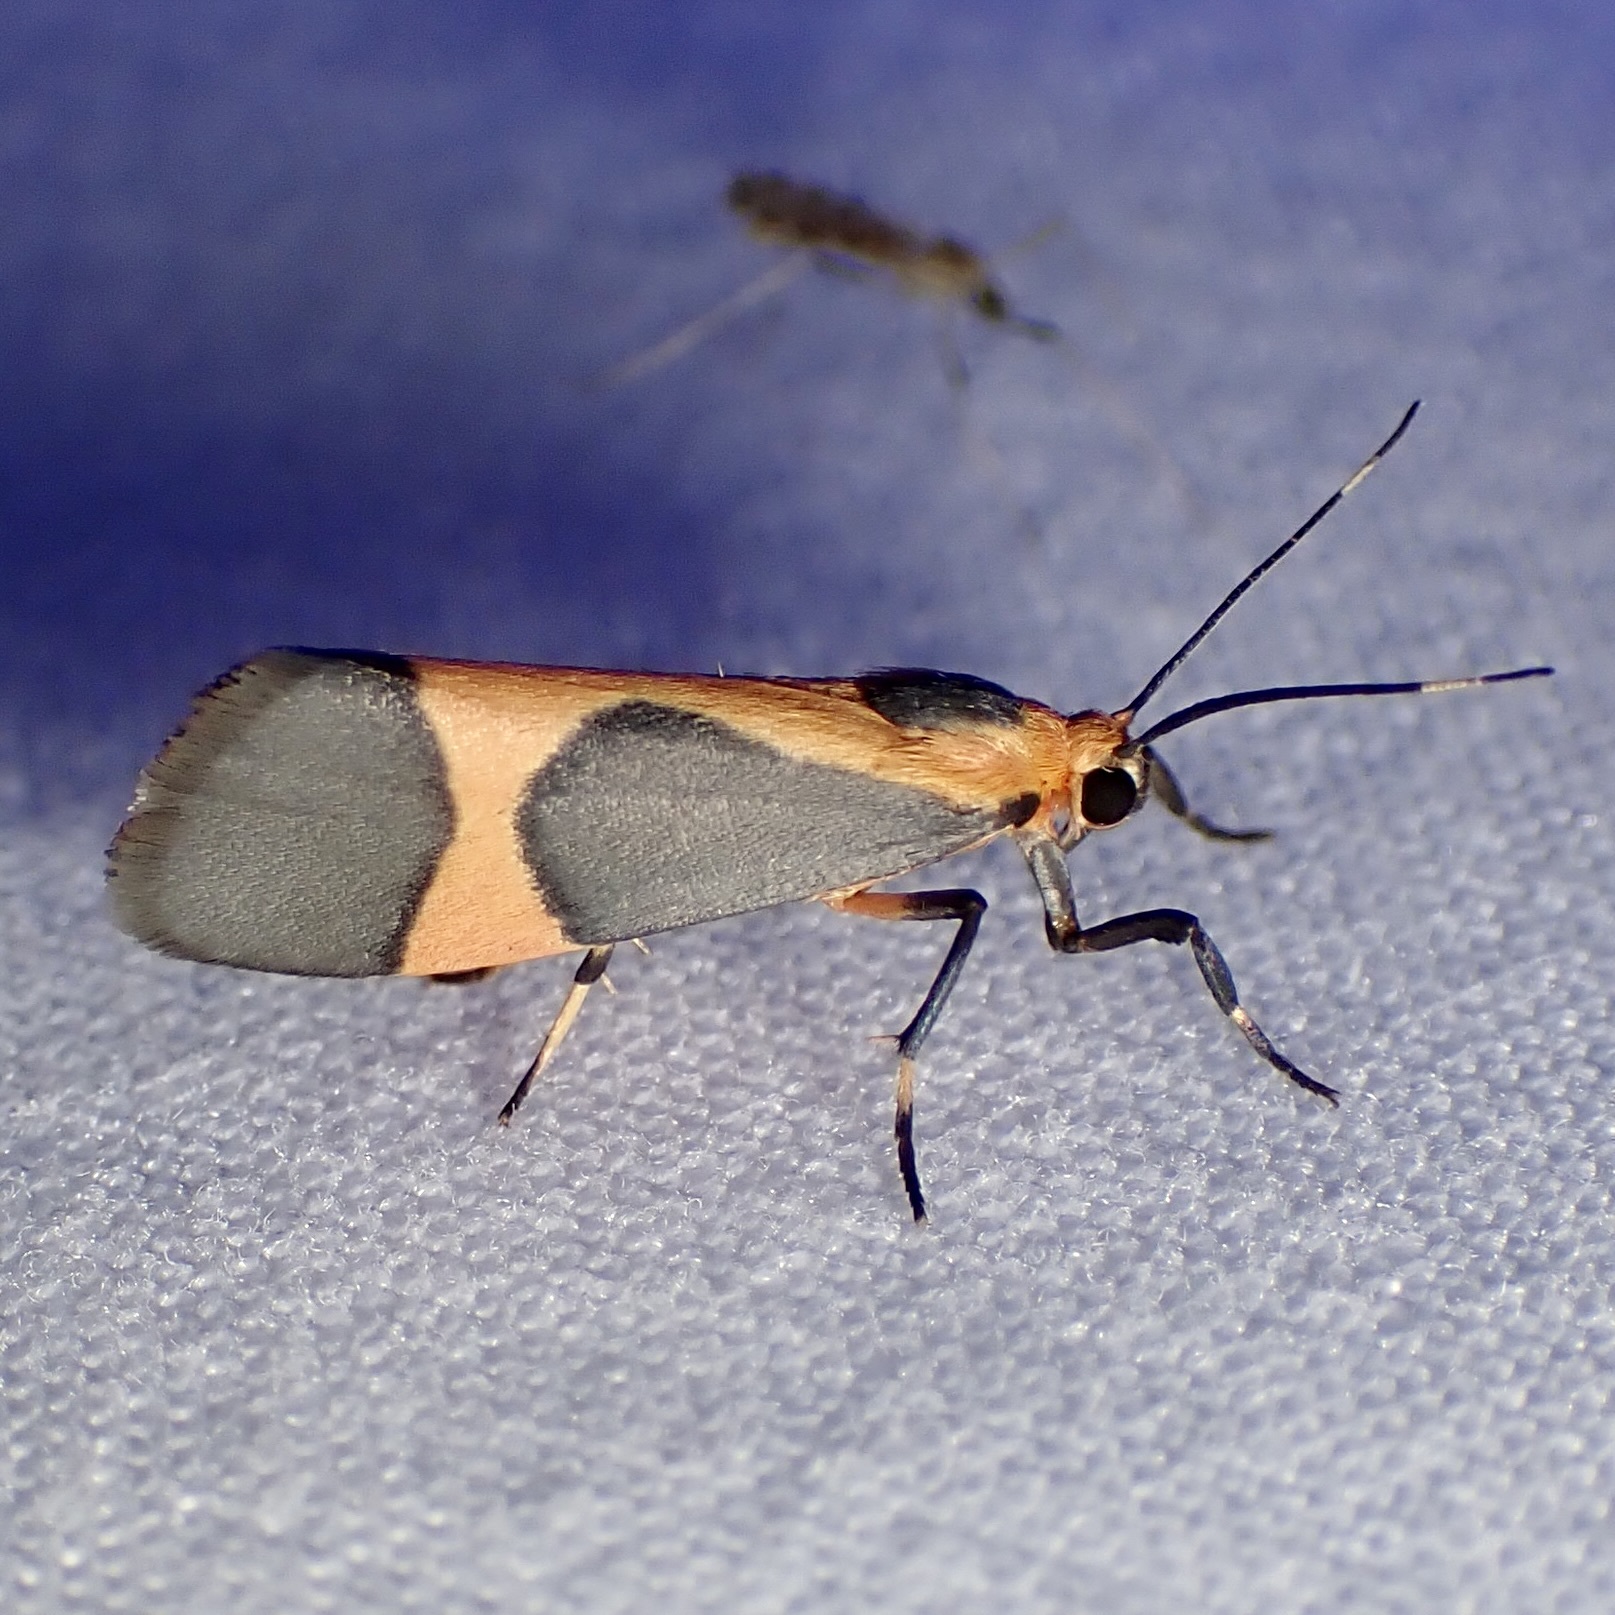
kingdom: Animalia
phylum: Arthropoda
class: Insecta
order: Lepidoptera
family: Erebidae
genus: Cisthene
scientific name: Cisthene martini
